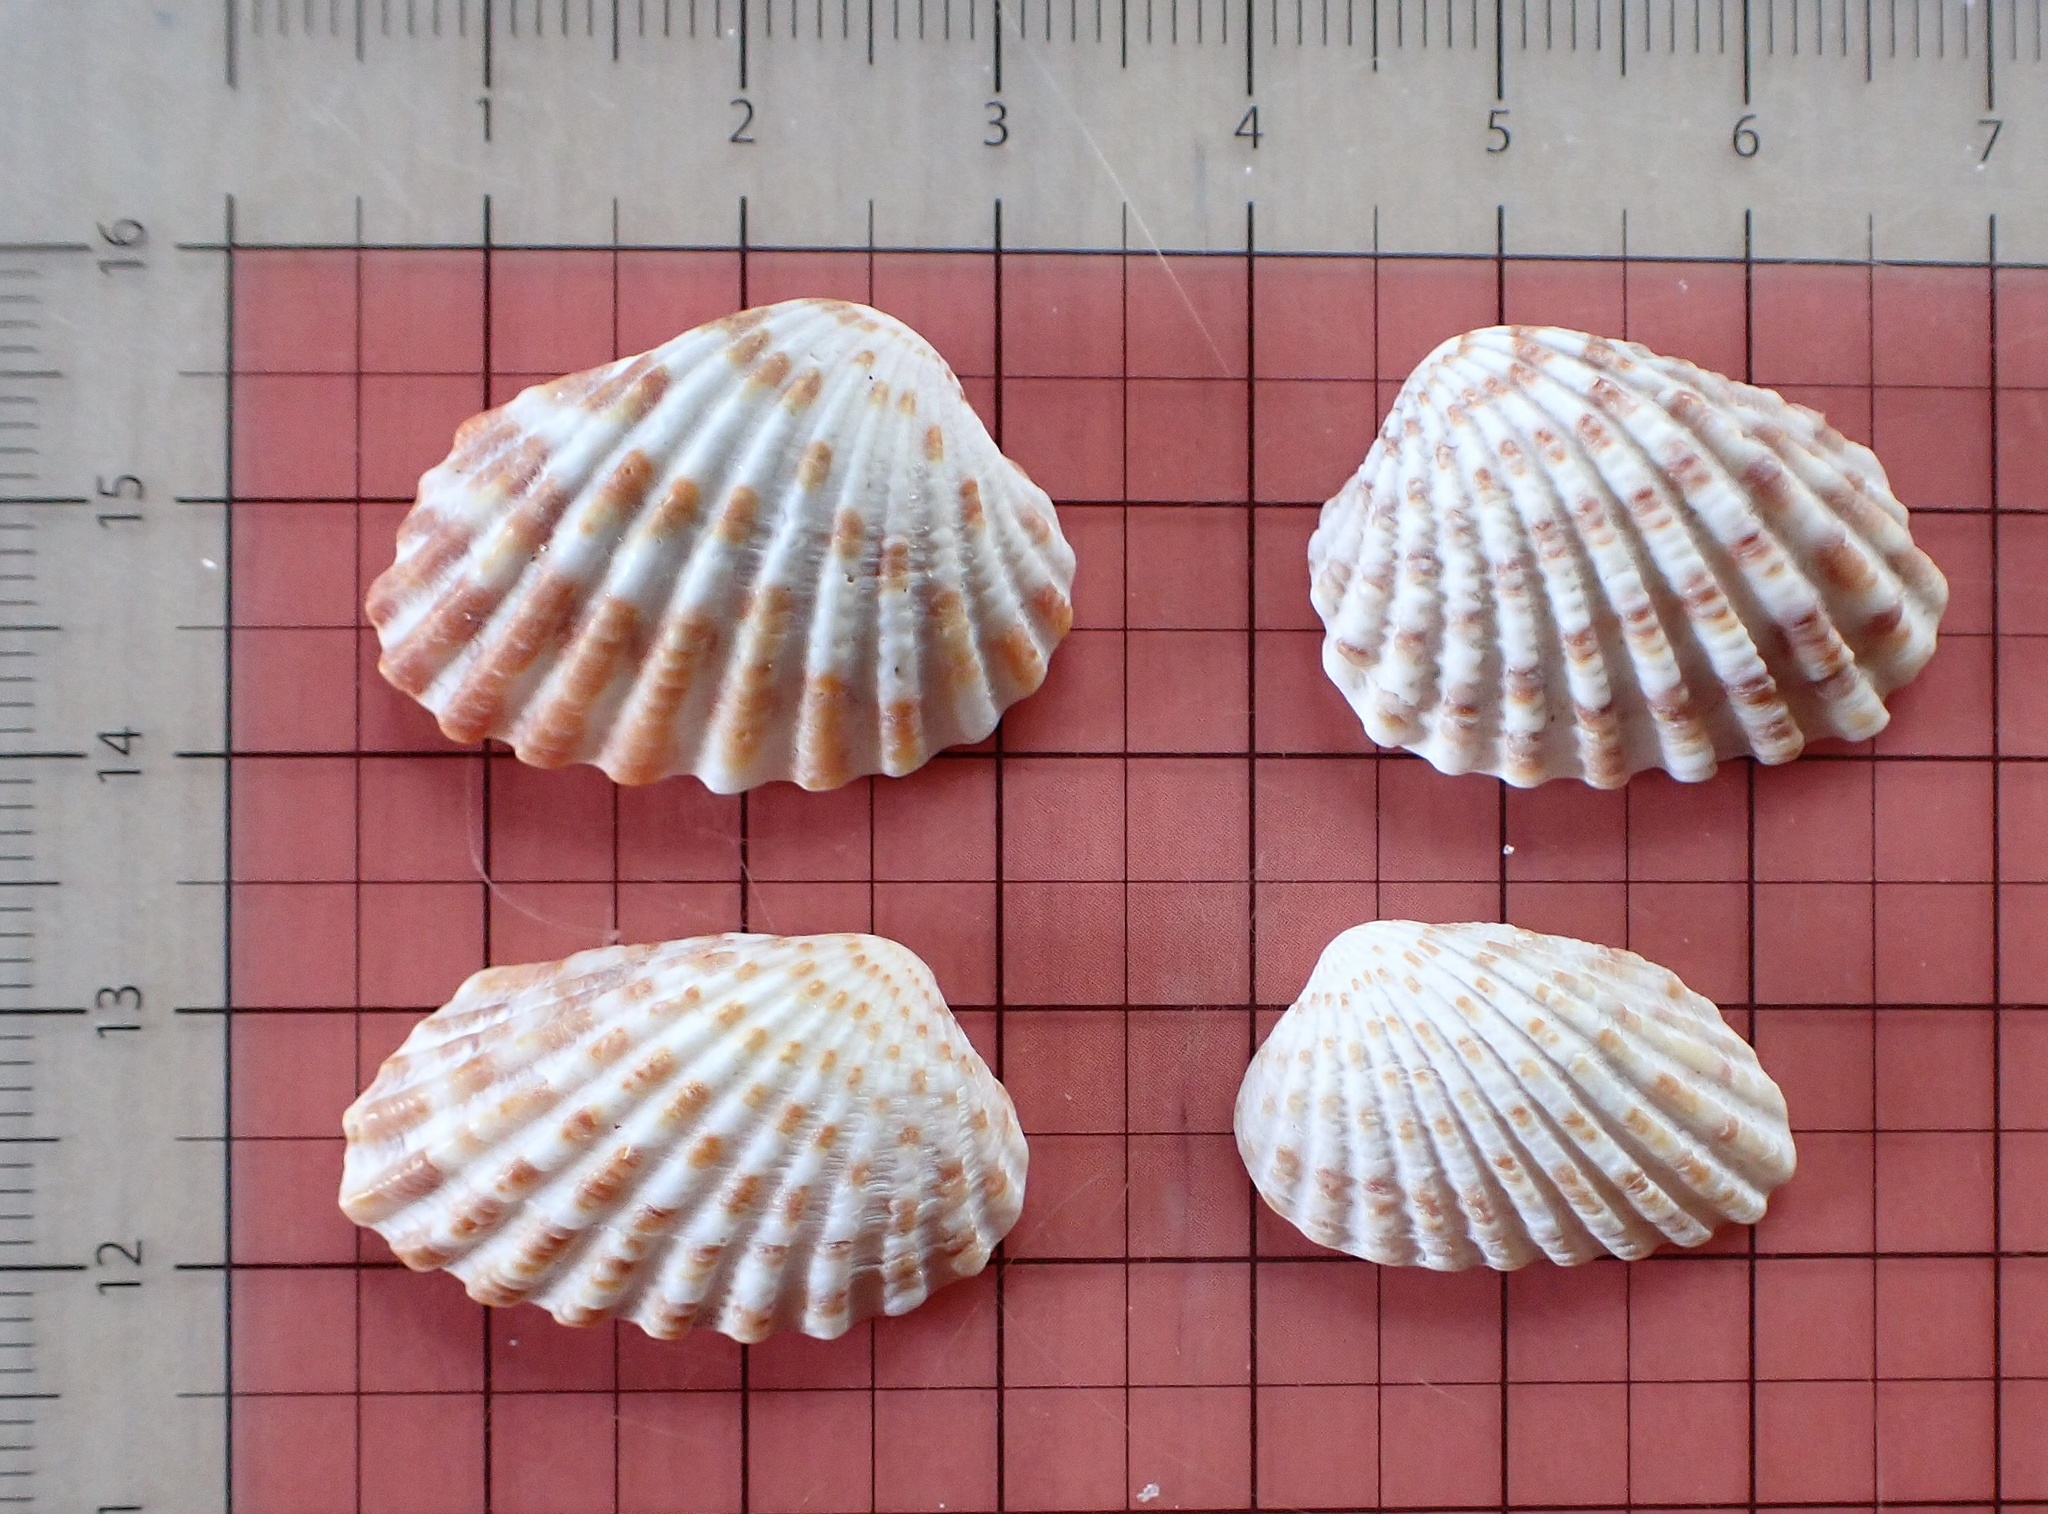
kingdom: Animalia
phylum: Mollusca
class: Bivalvia
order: Carditida
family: Carditidae
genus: Cardites
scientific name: Cardites floridanus
